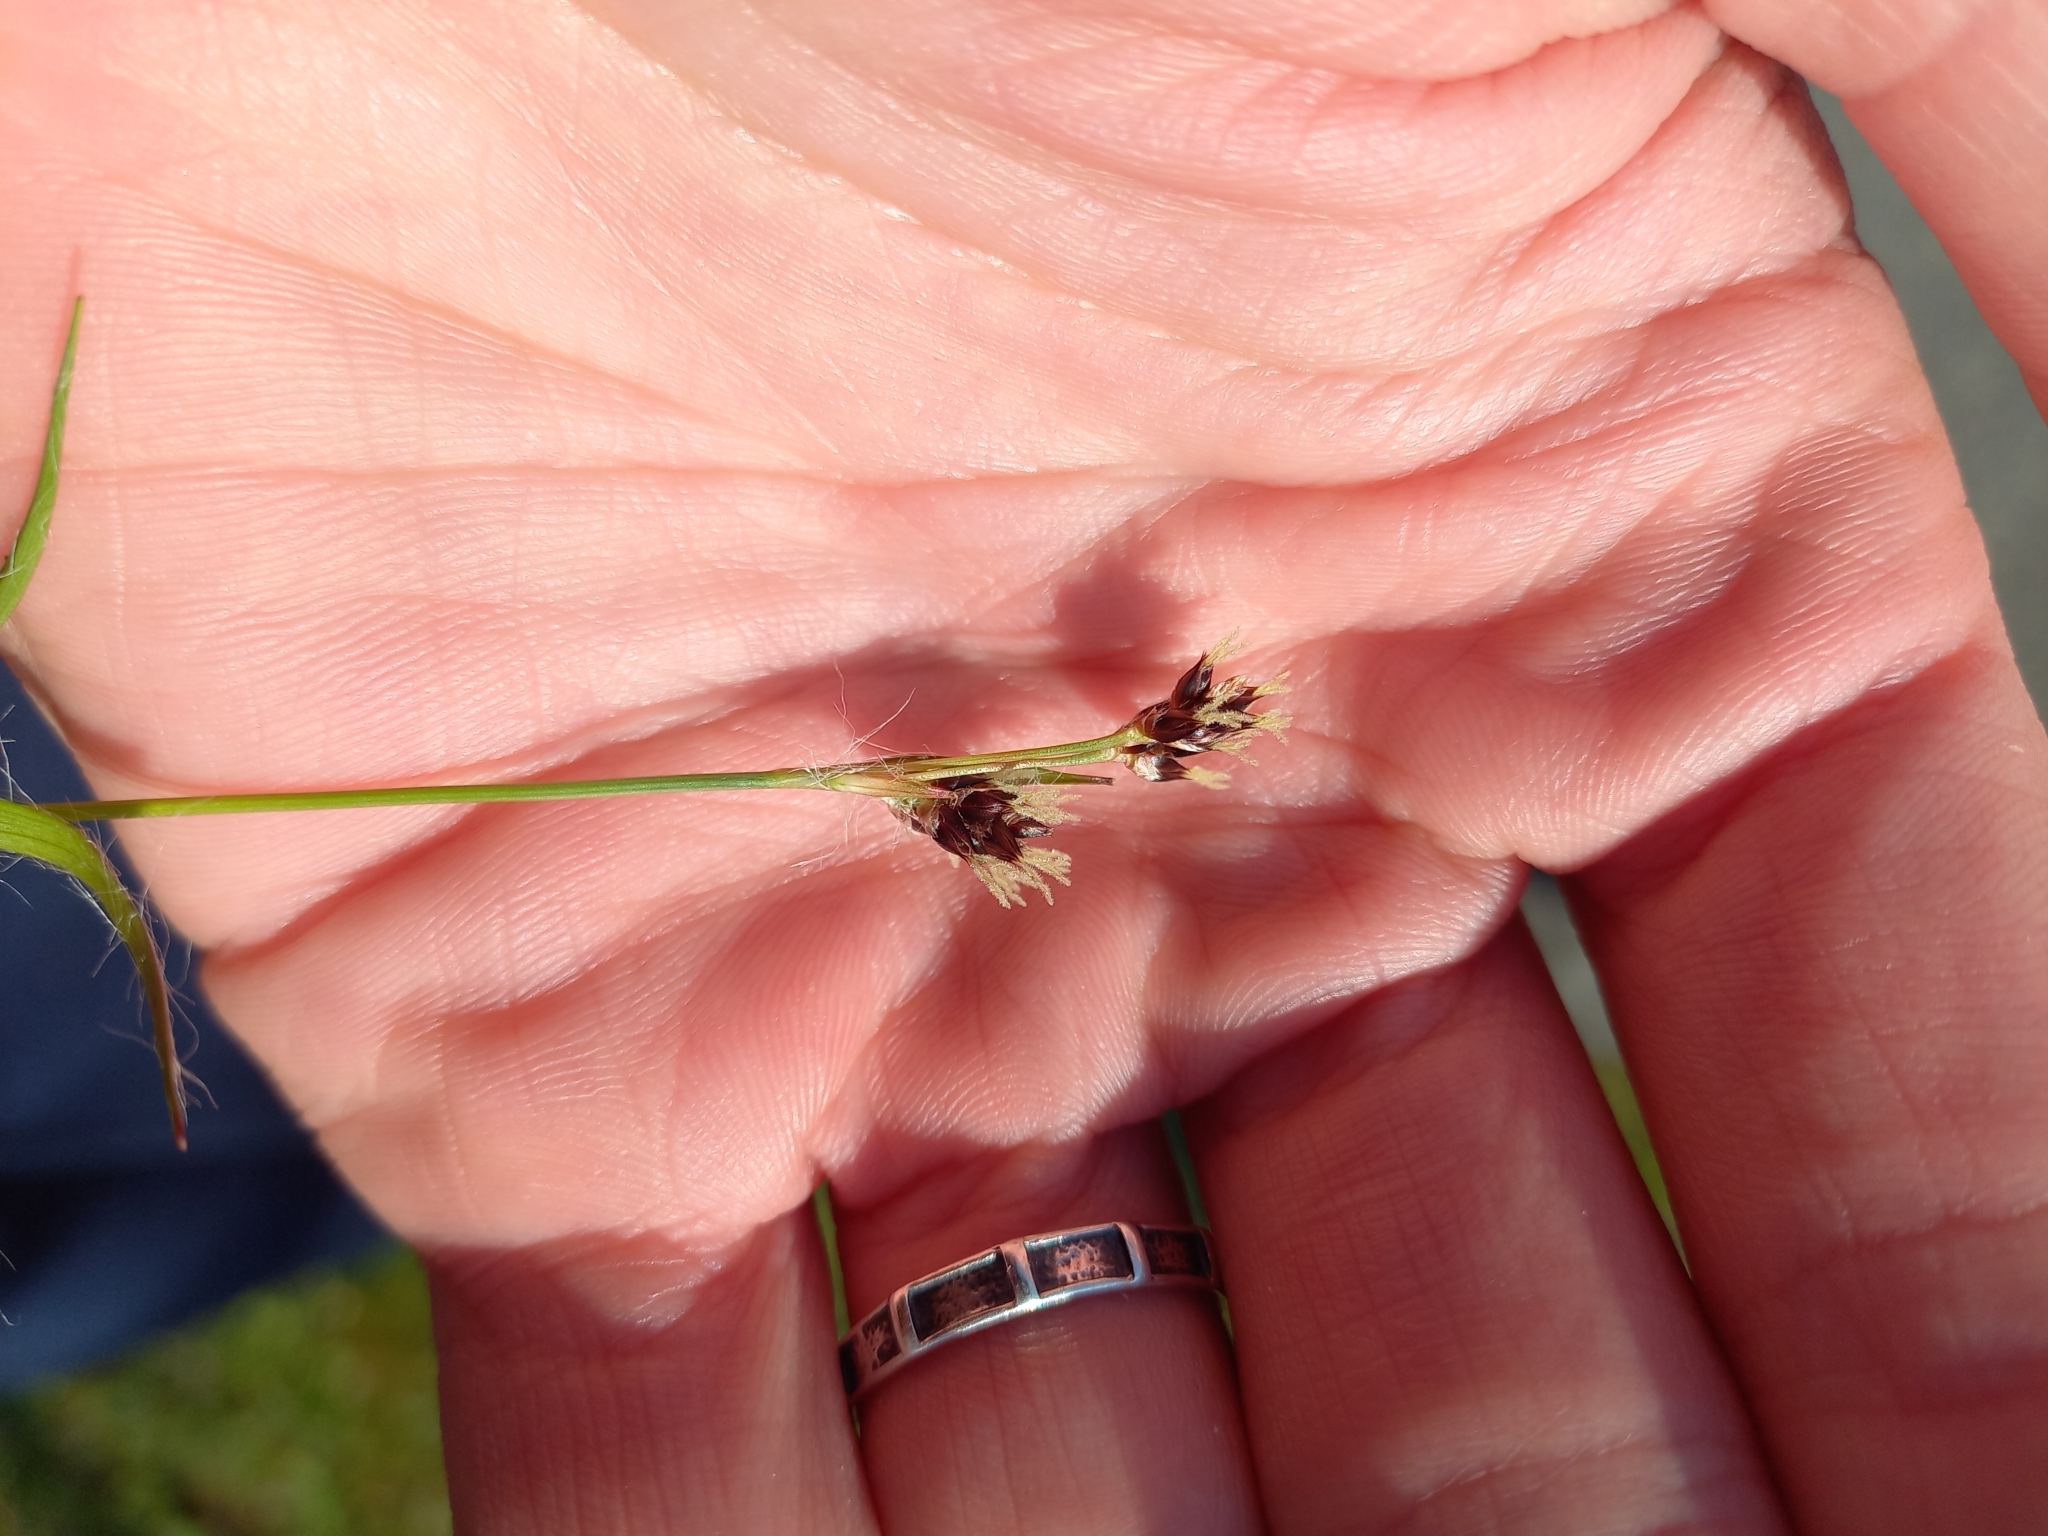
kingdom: Plantae
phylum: Tracheophyta
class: Liliopsida
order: Poales
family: Juncaceae
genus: Luzula
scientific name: Luzula campestris
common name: Field wood-rush
